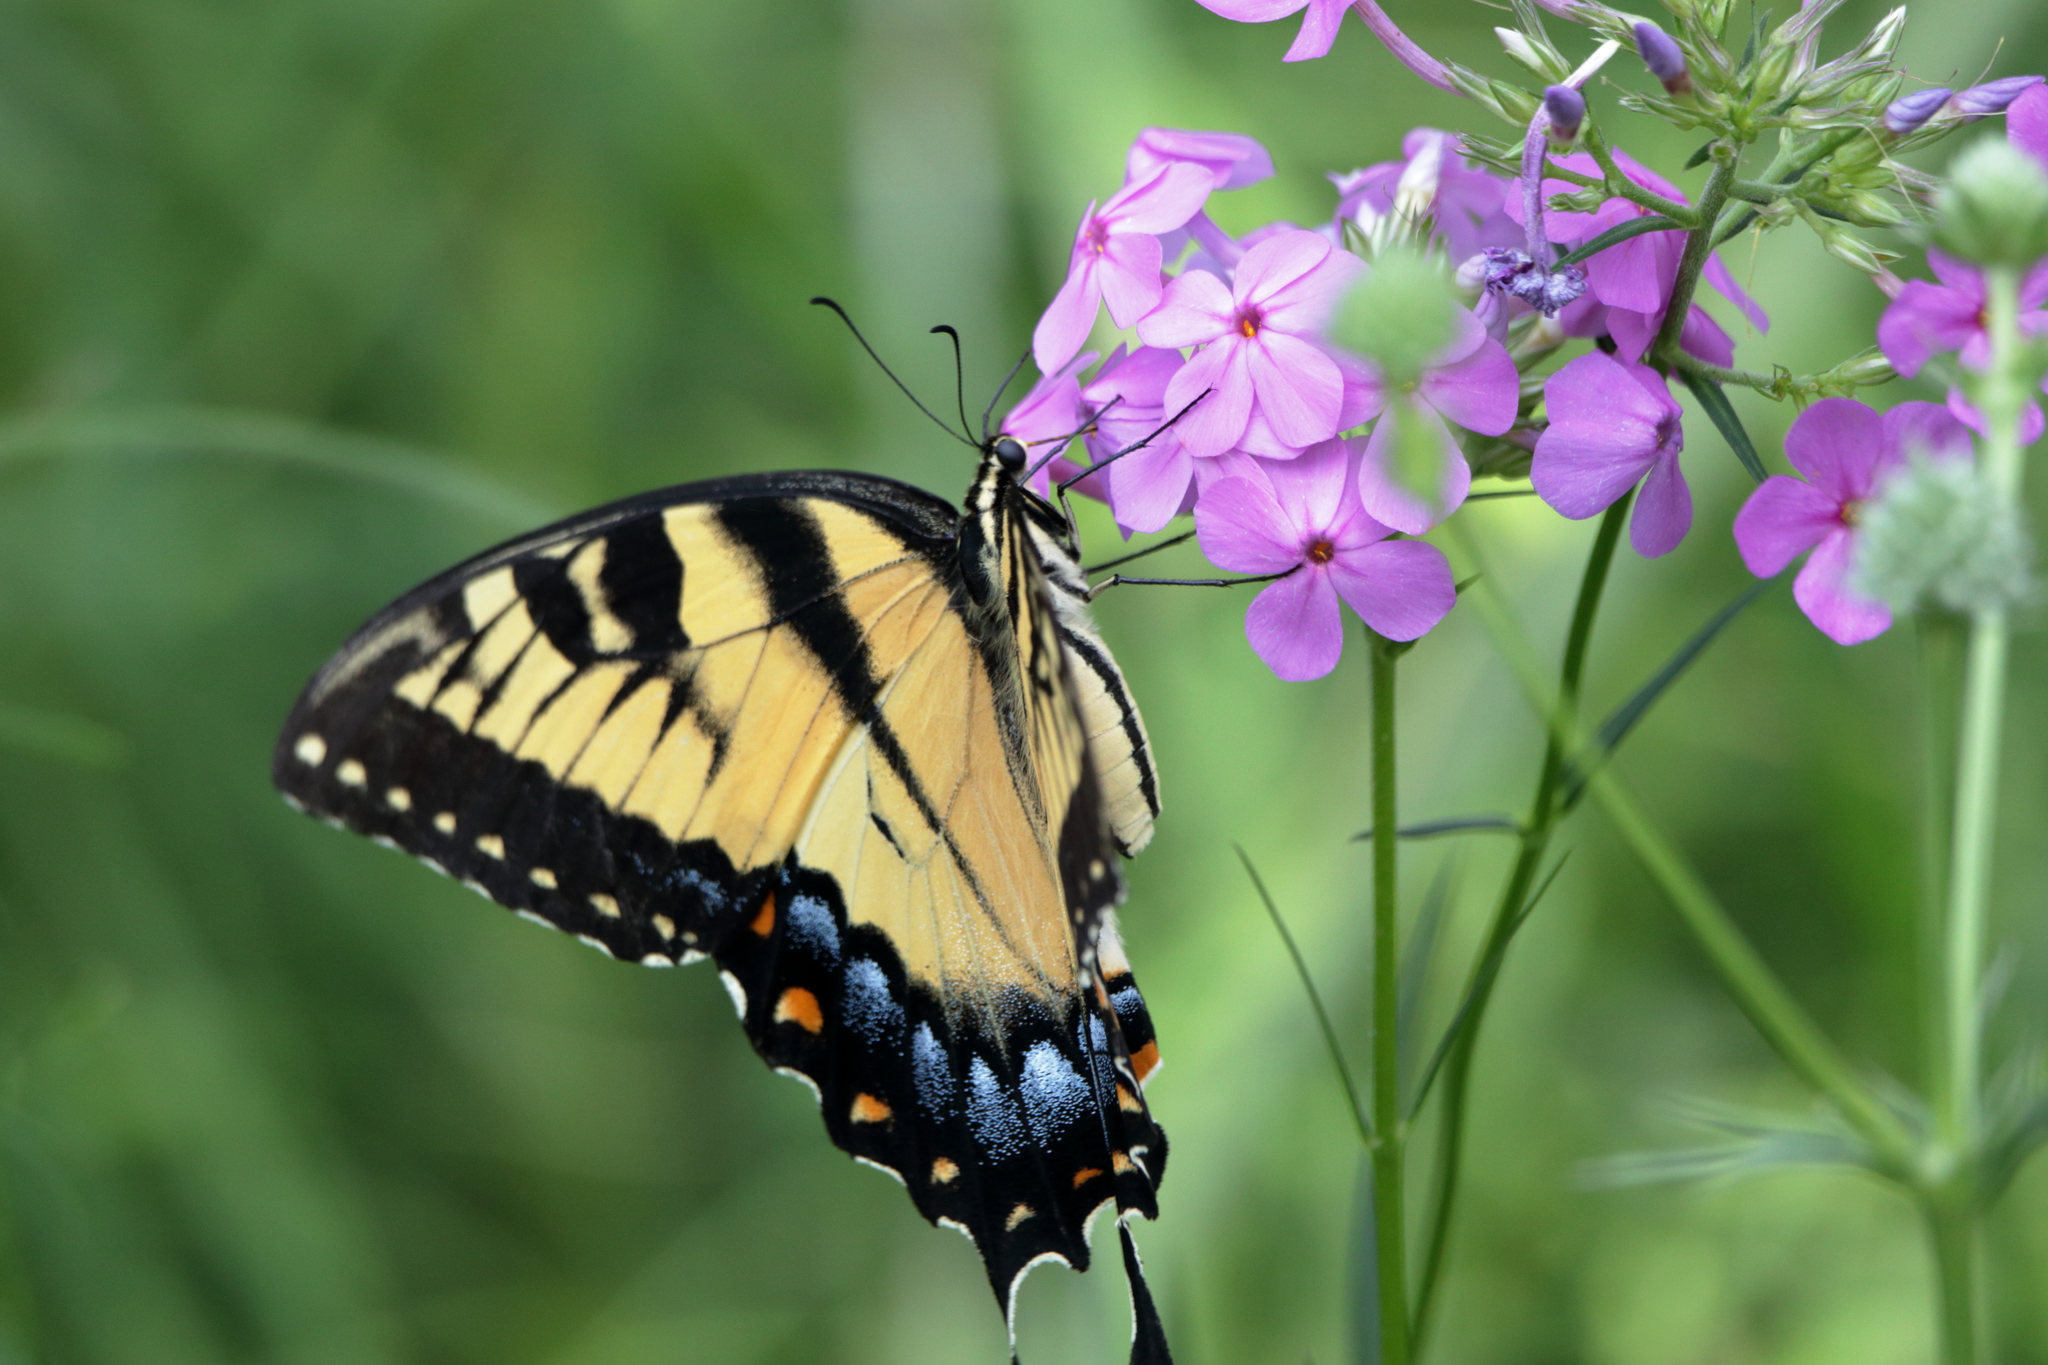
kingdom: Animalia
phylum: Arthropoda
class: Insecta
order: Lepidoptera
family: Papilionidae
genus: Papilio
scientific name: Papilio glaucus
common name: Tiger swallowtail
